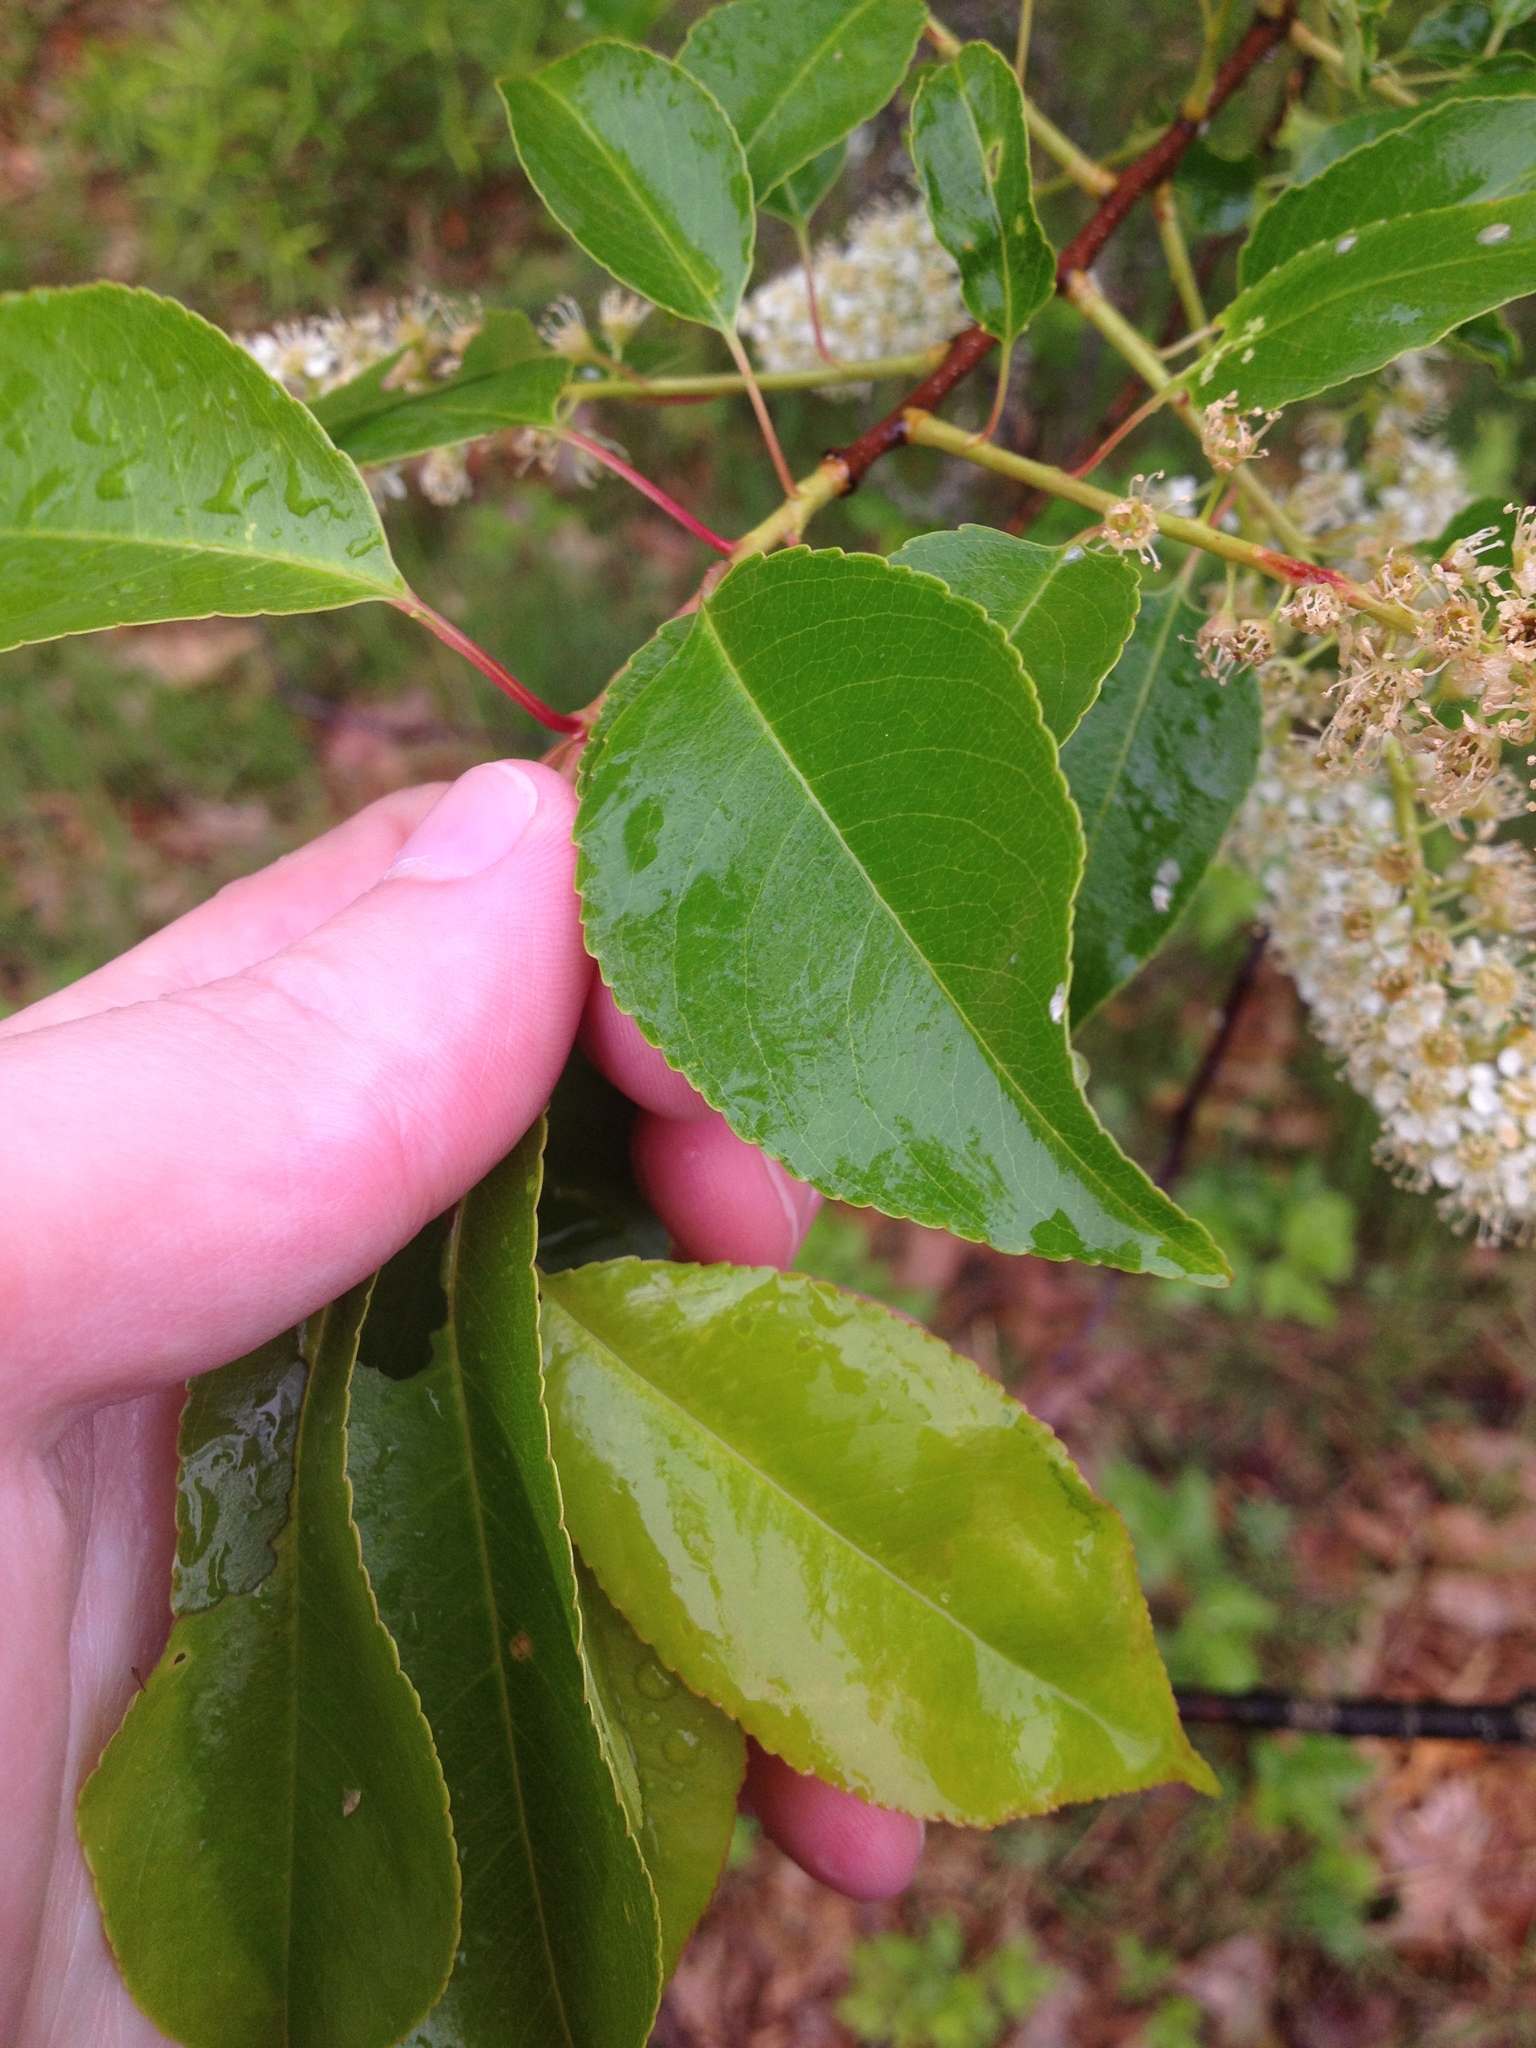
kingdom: Plantae
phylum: Tracheophyta
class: Magnoliopsida
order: Rosales
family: Rosaceae
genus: Prunus
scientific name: Prunus serotina
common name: Black cherry
